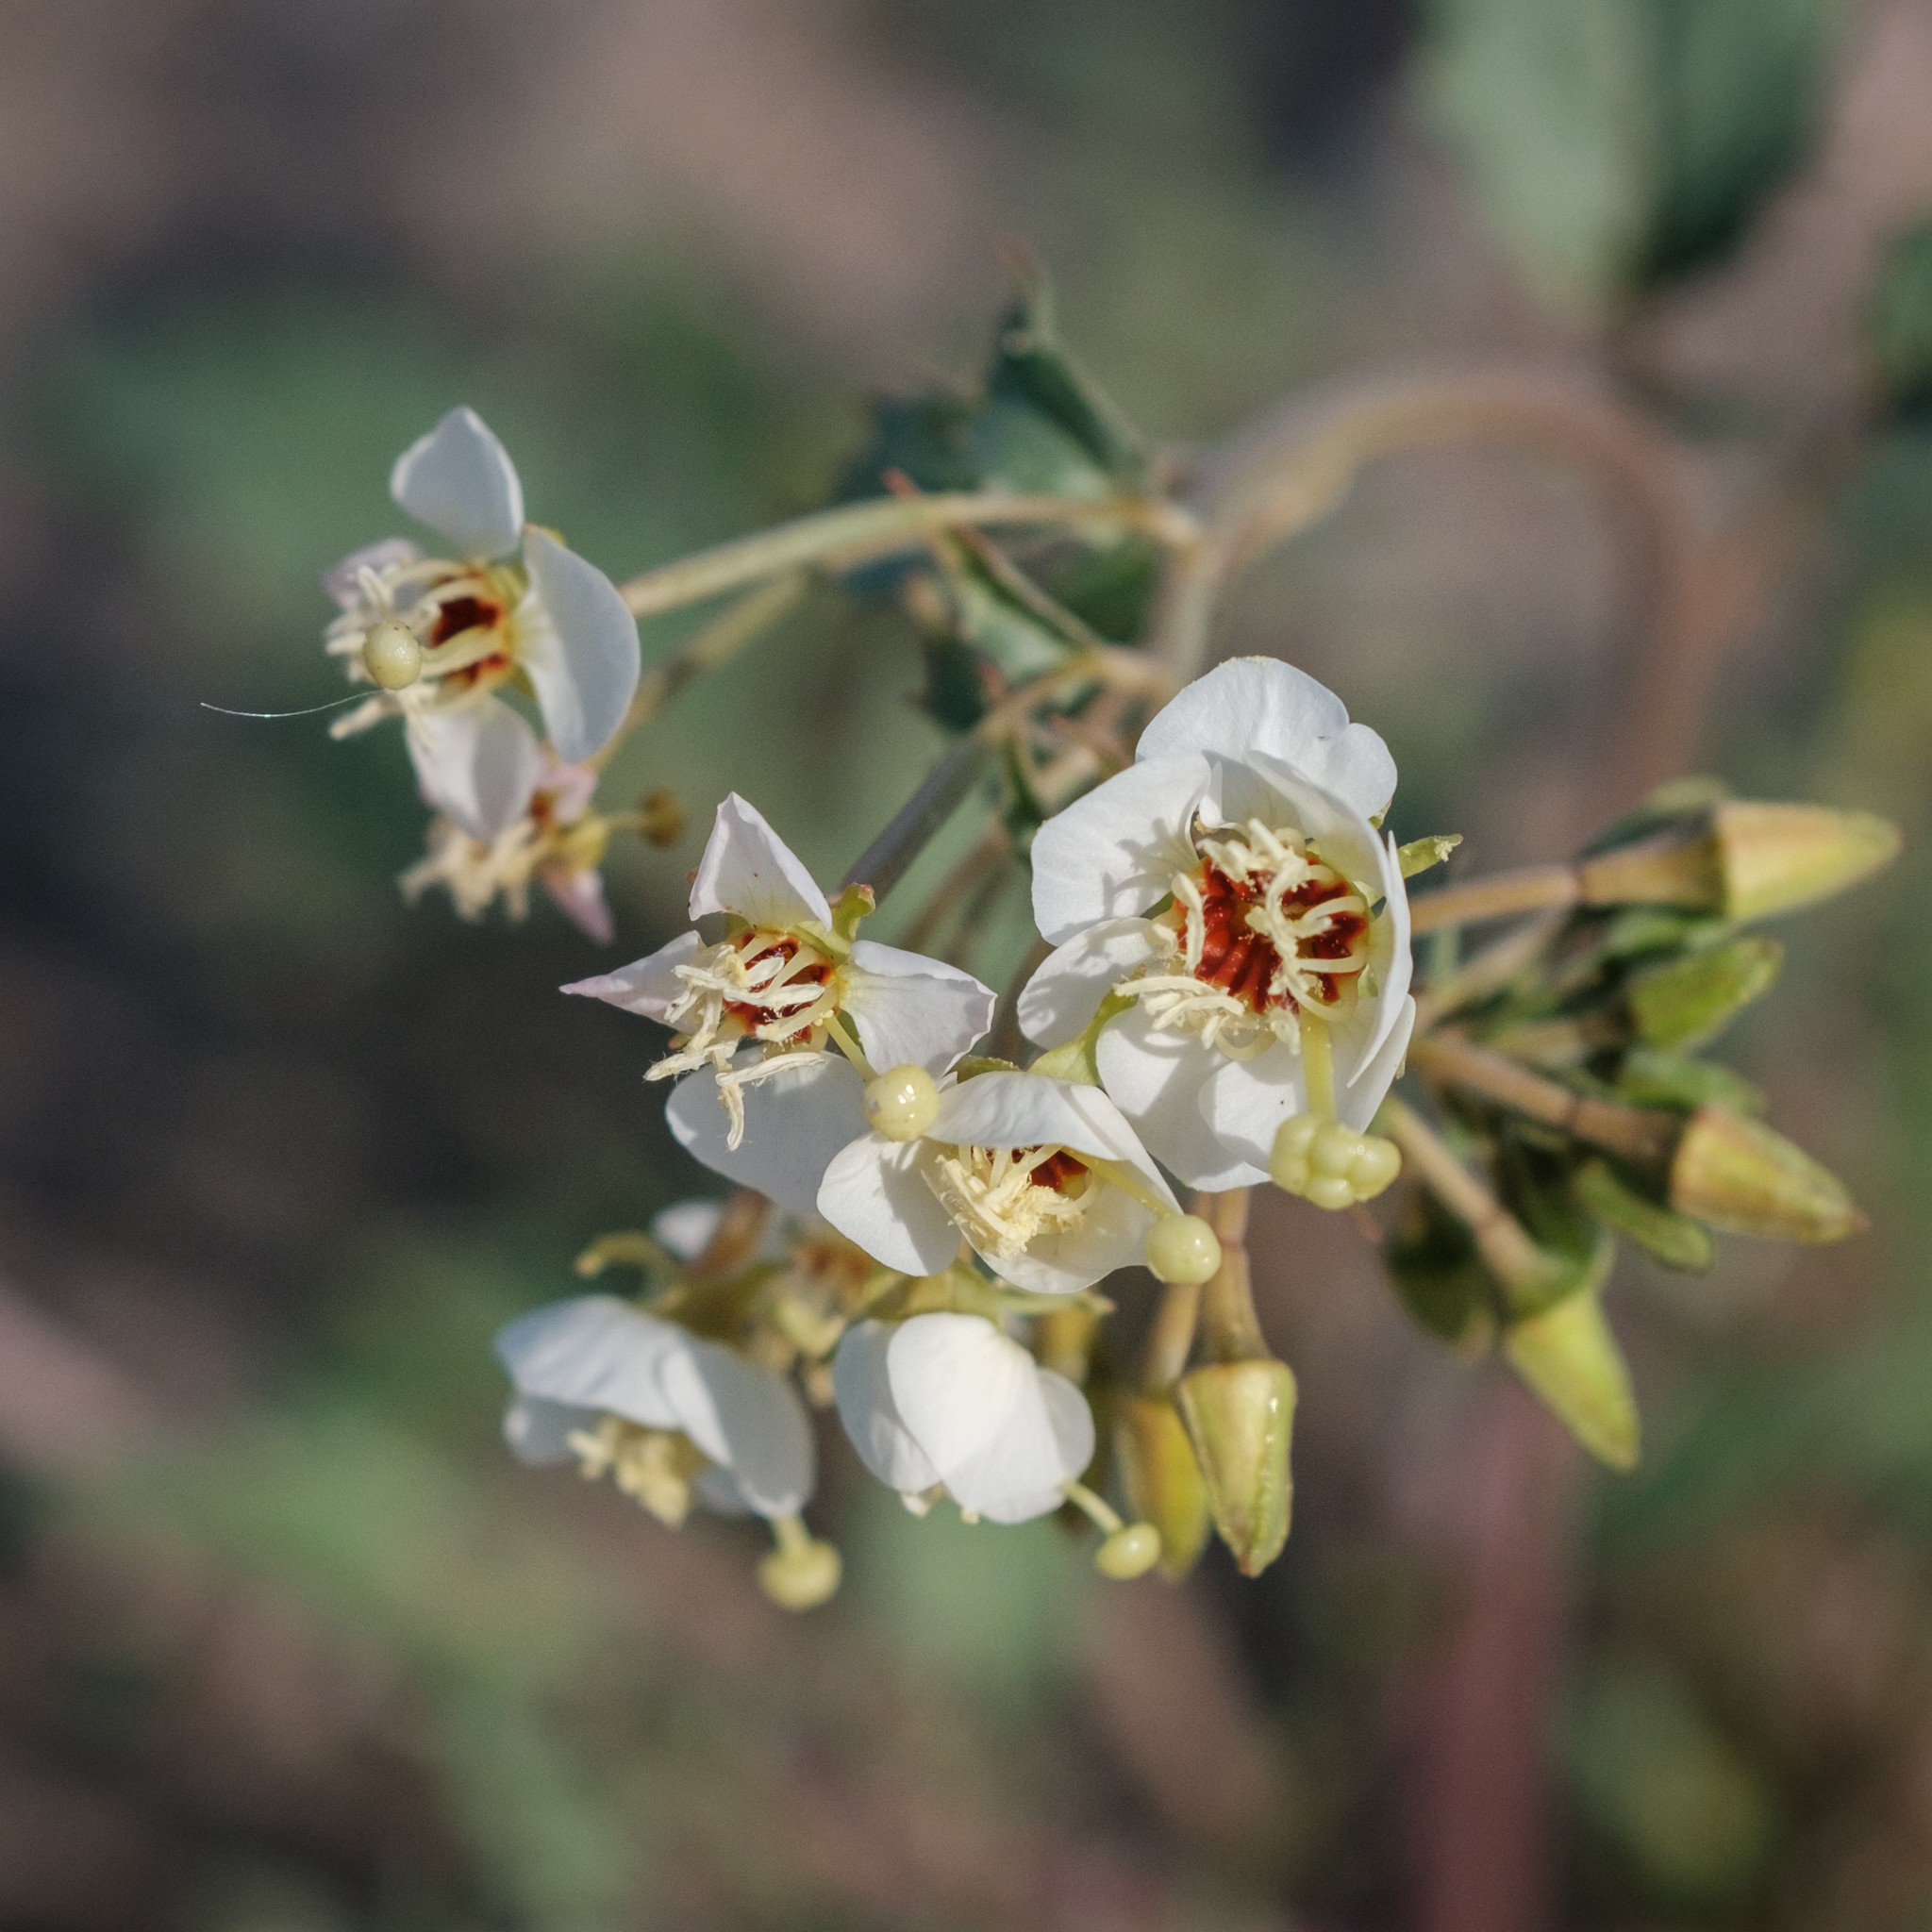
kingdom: Plantae
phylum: Tracheophyta
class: Magnoliopsida
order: Myrtales
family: Onagraceae
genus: Chylismia
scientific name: Chylismia claviformis
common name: Browneyes
